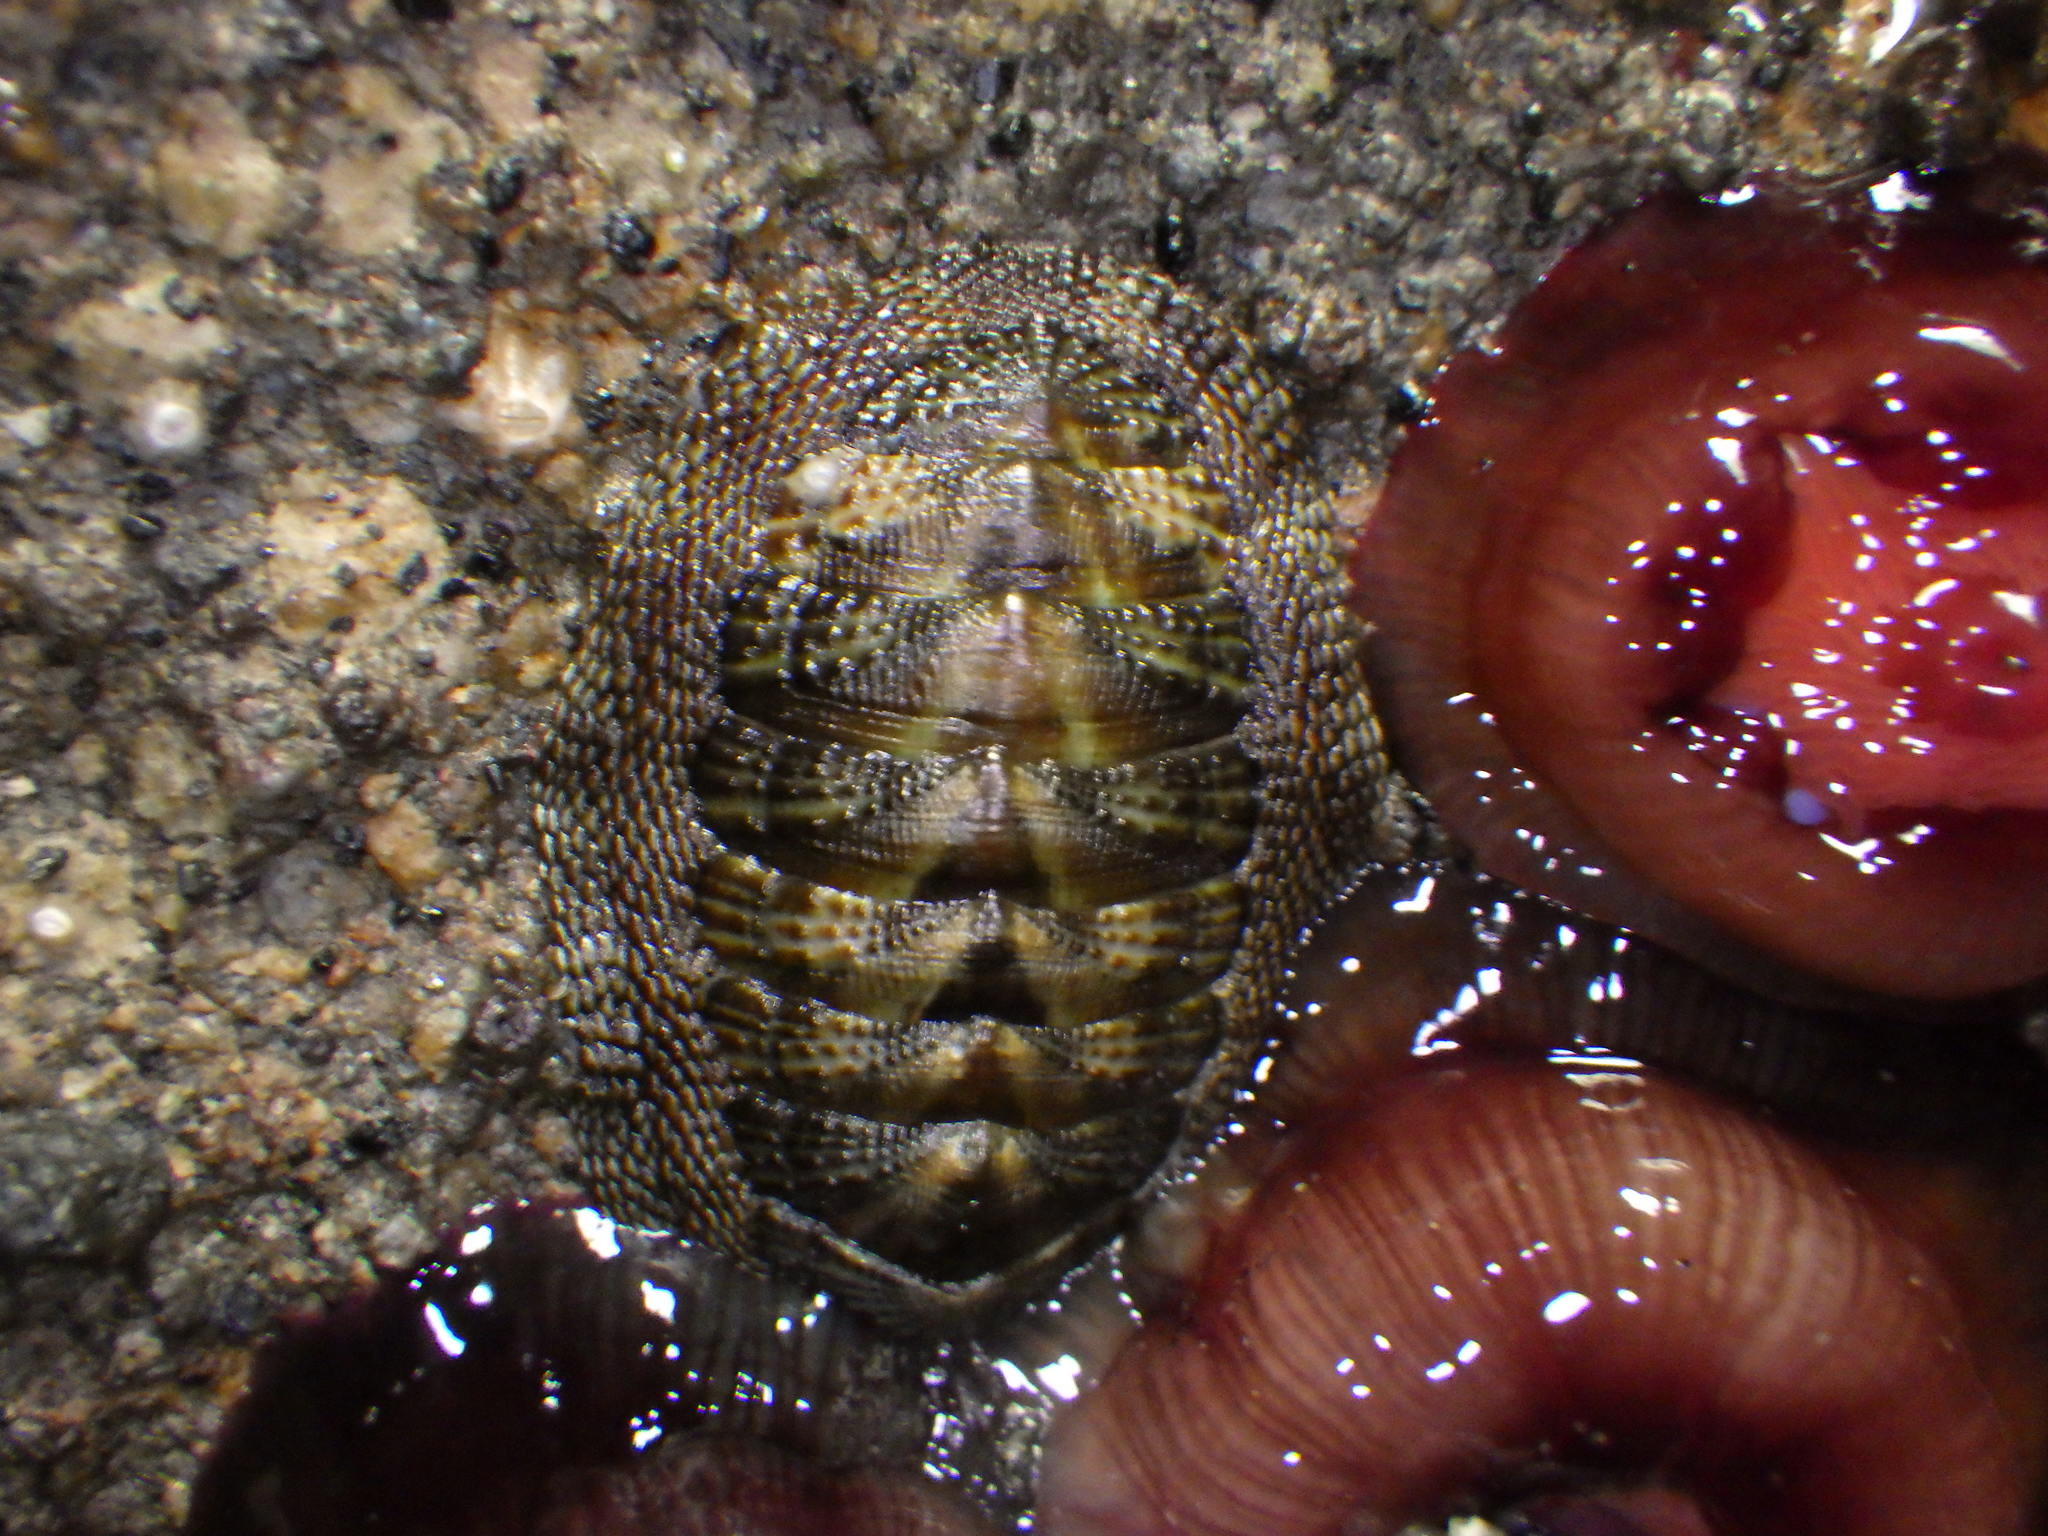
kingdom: Animalia
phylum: Mollusca
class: Polyplacophora
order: Chitonida
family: Chitonidae
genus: Sypharochiton
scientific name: Sypharochiton pelliserpentis
